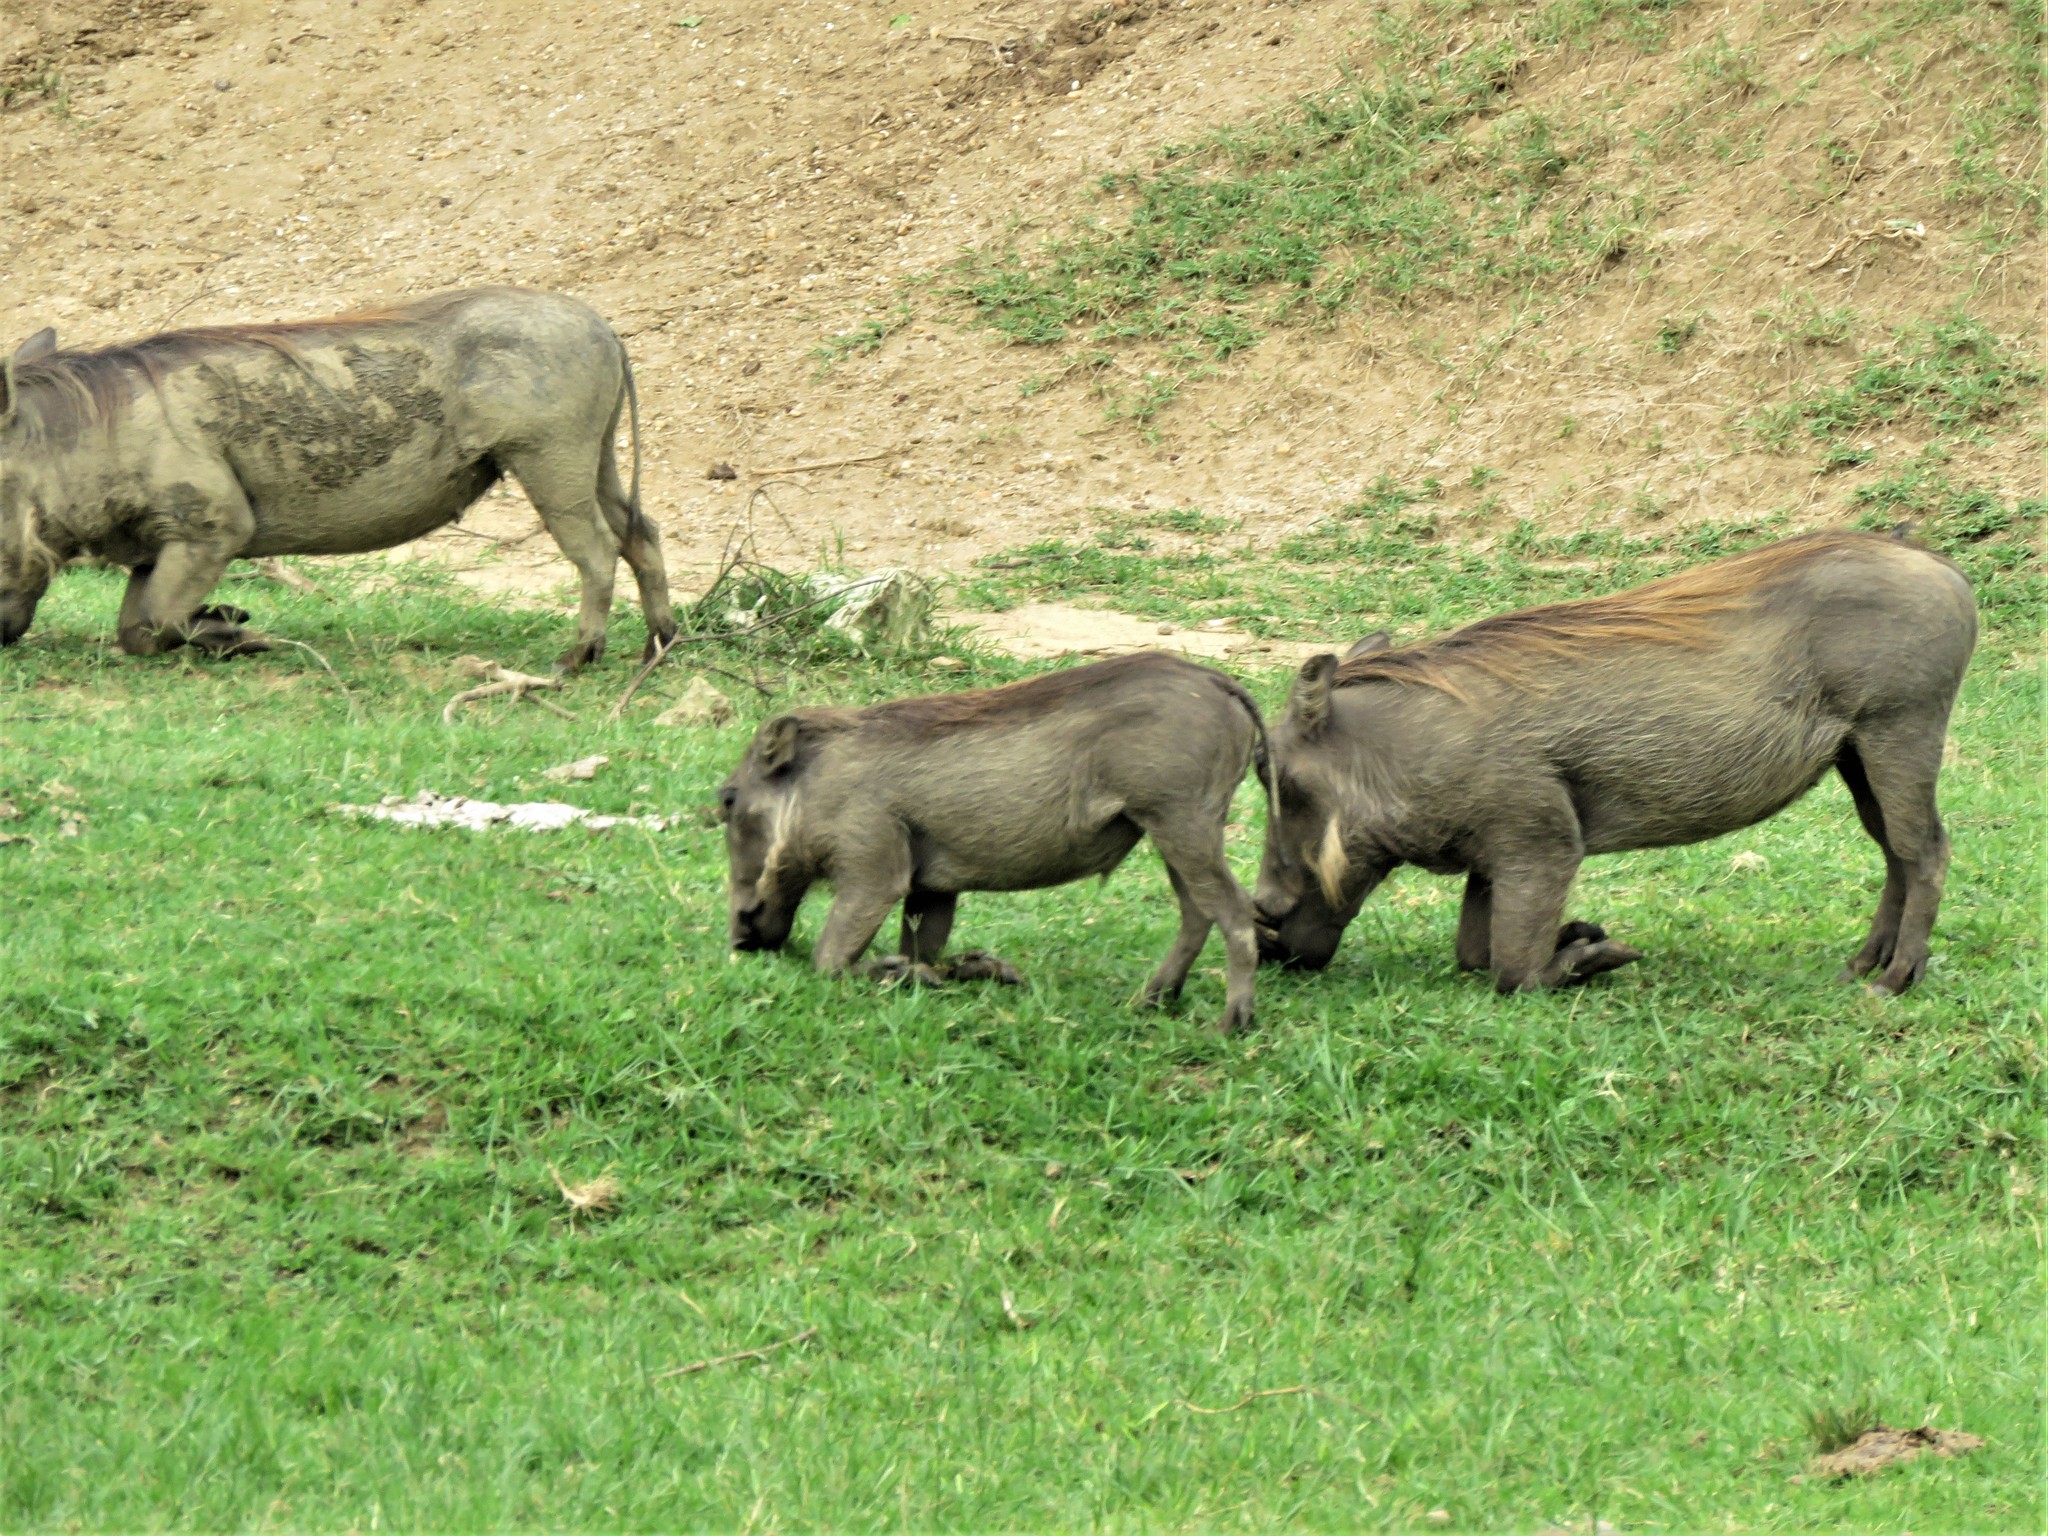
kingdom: Animalia
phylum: Chordata
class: Mammalia
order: Artiodactyla
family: Suidae
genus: Phacochoerus
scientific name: Phacochoerus africanus
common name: Common warthog
